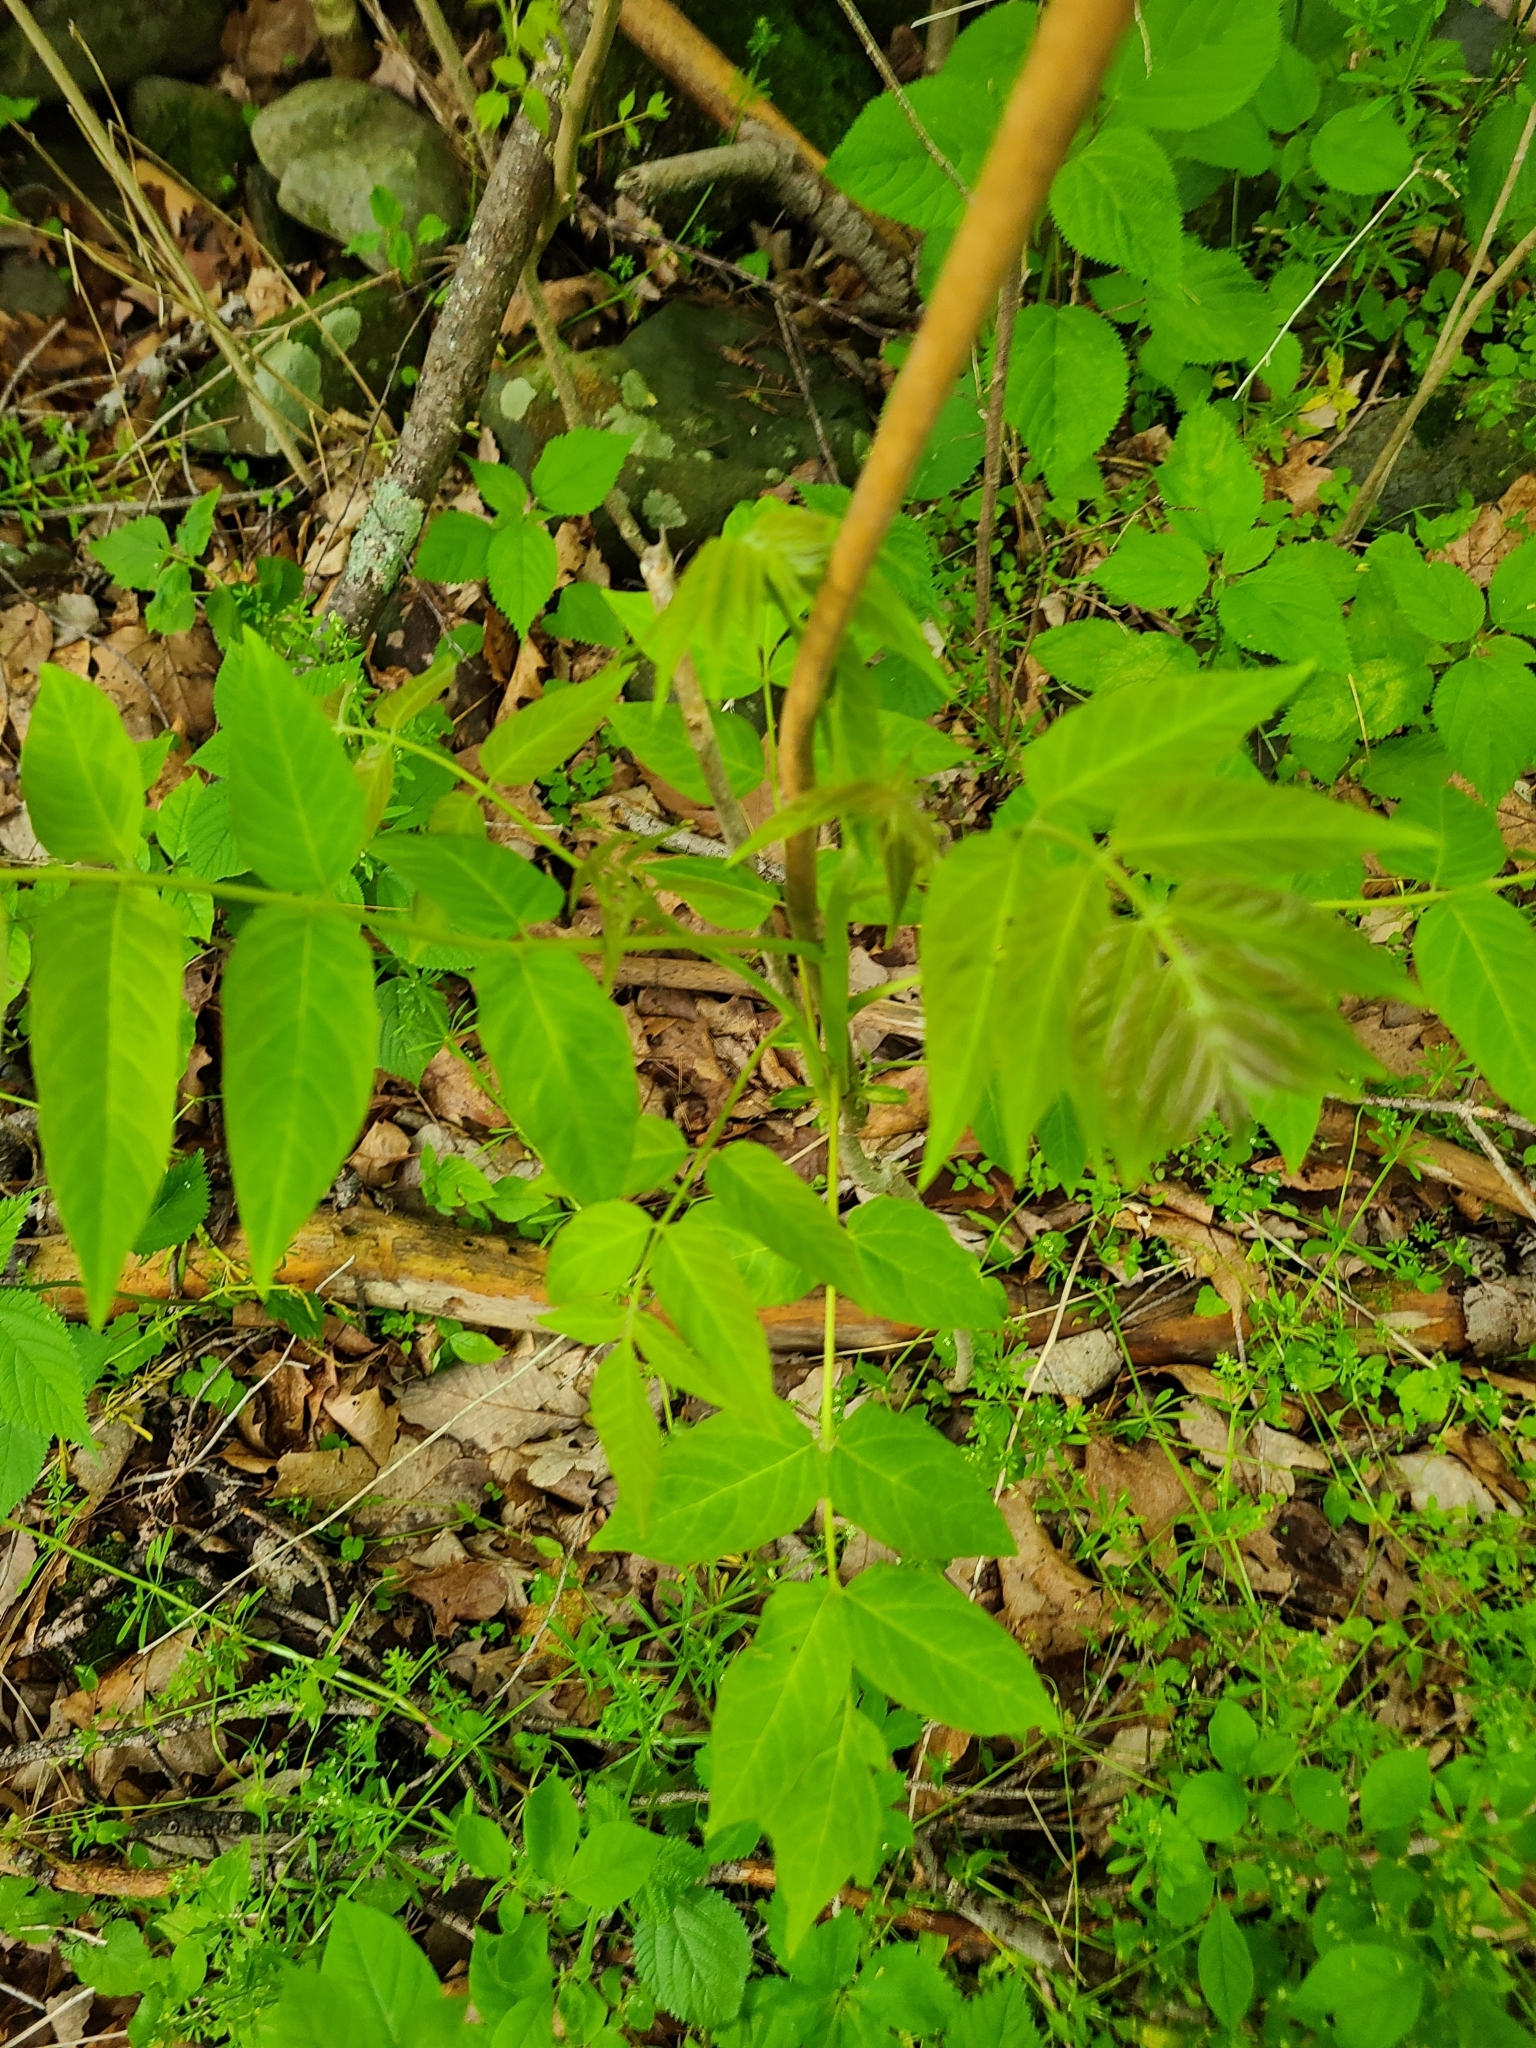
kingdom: Plantae
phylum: Tracheophyta
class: Magnoliopsida
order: Sapindales
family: Simaroubaceae
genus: Ailanthus
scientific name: Ailanthus altissima
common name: Tree-of-heaven
